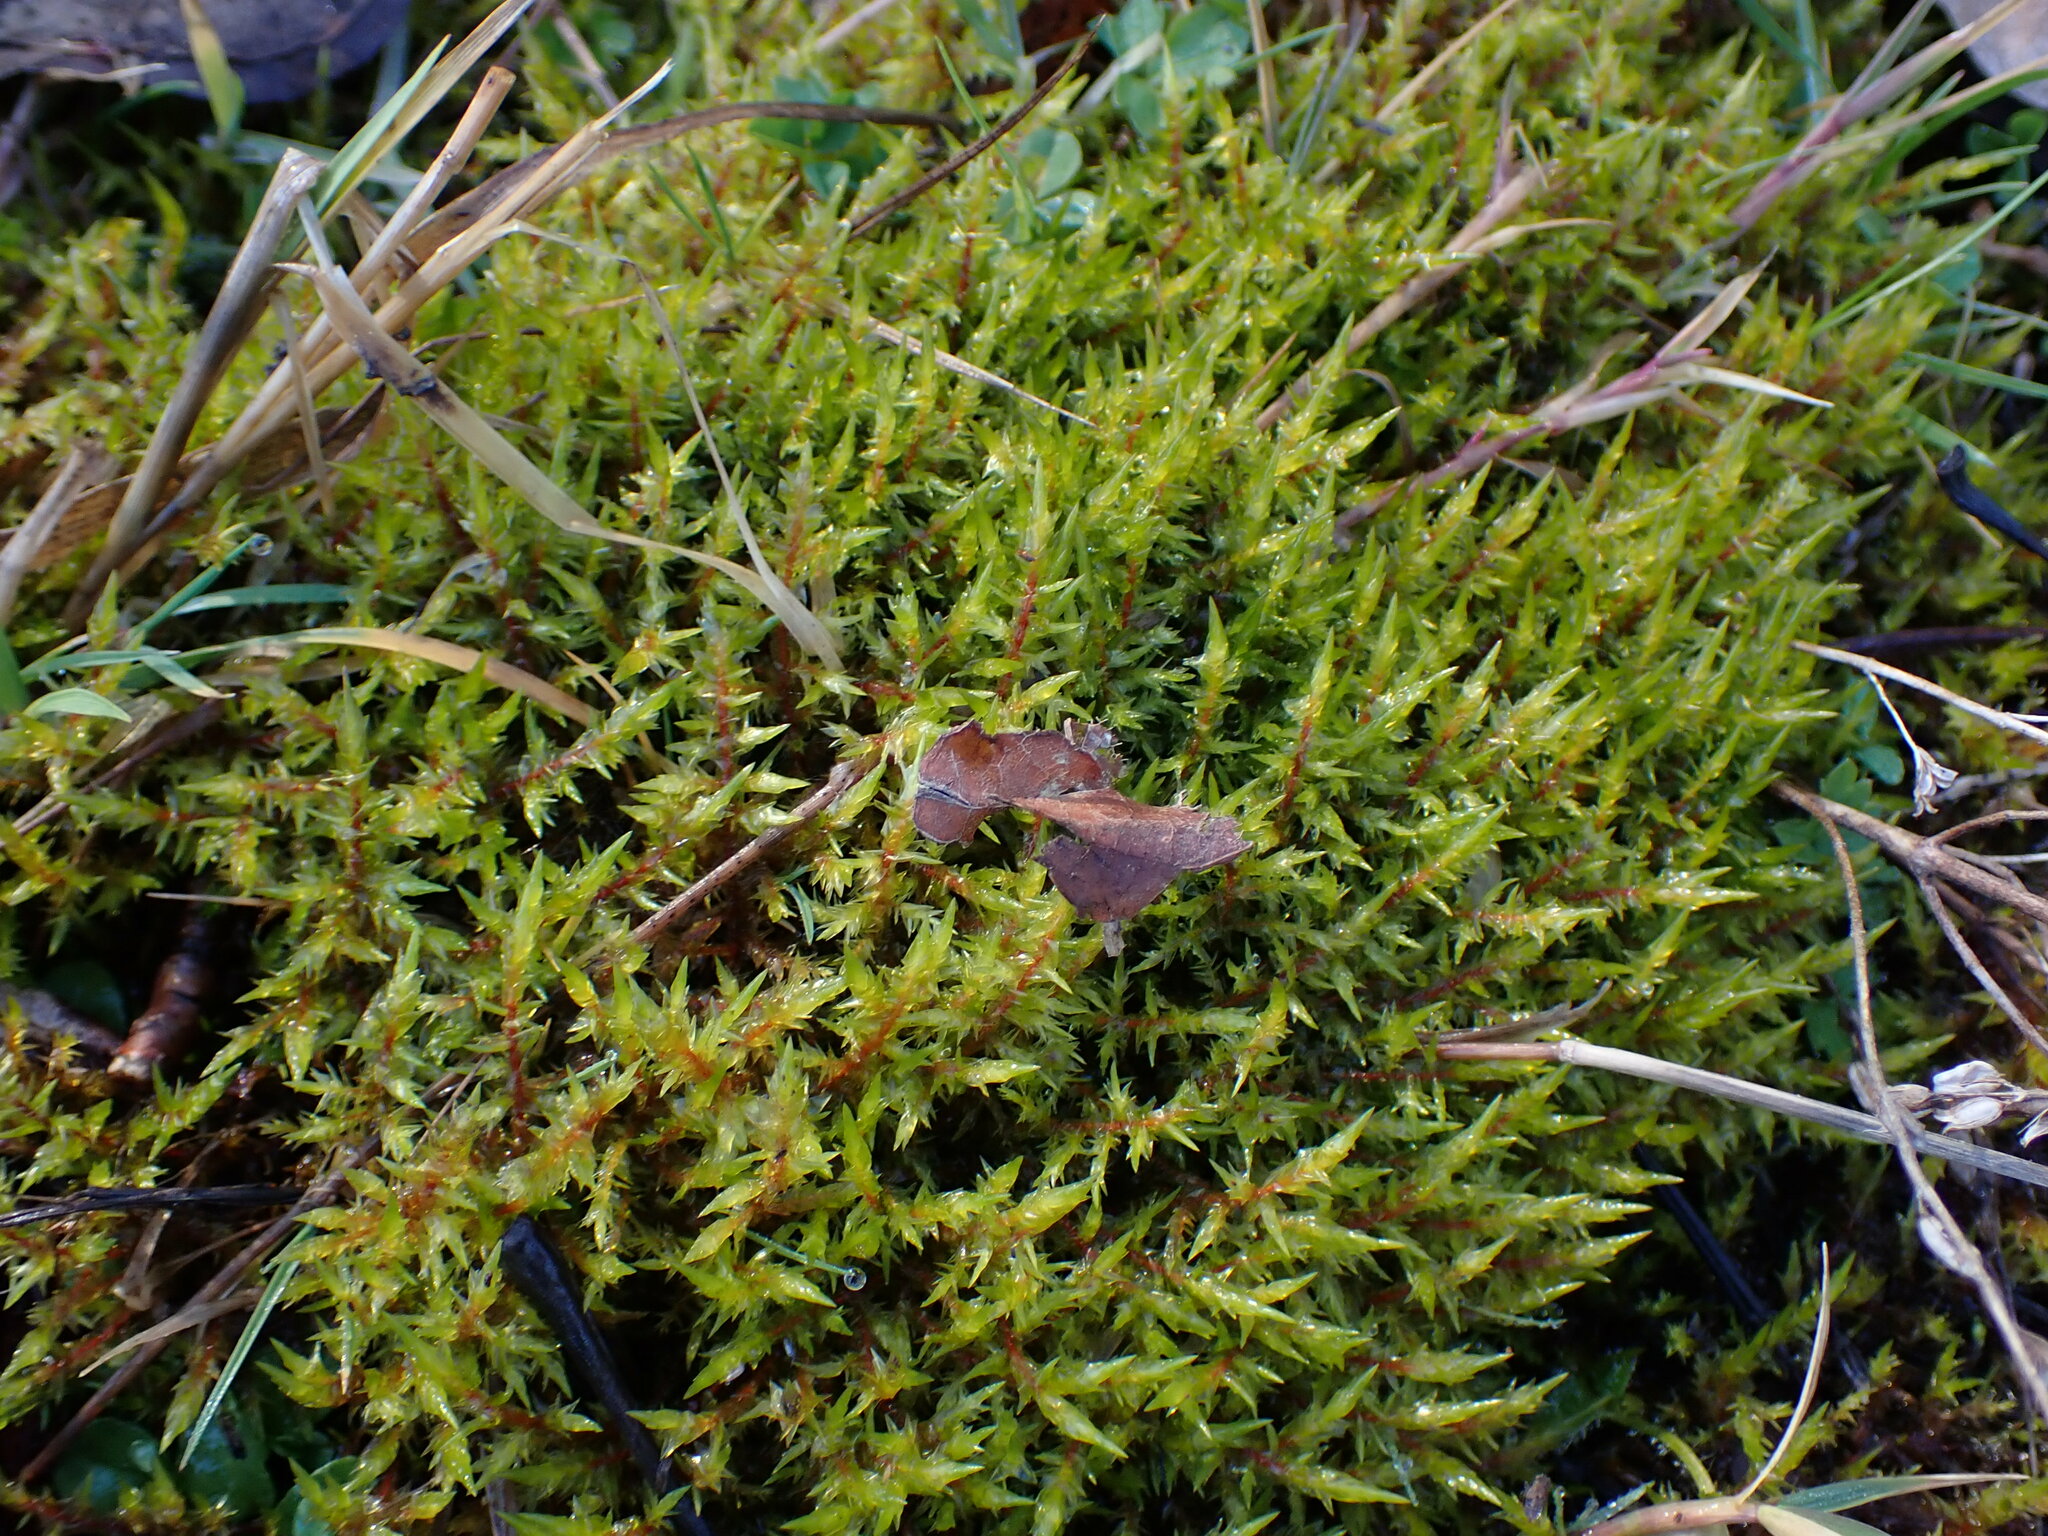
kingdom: Plantae
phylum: Bryophyta
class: Bryopsida
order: Hypnales
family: Pylaisiaceae
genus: Calliergonella
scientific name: Calliergonella cuspidata
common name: Common large wetland moss
